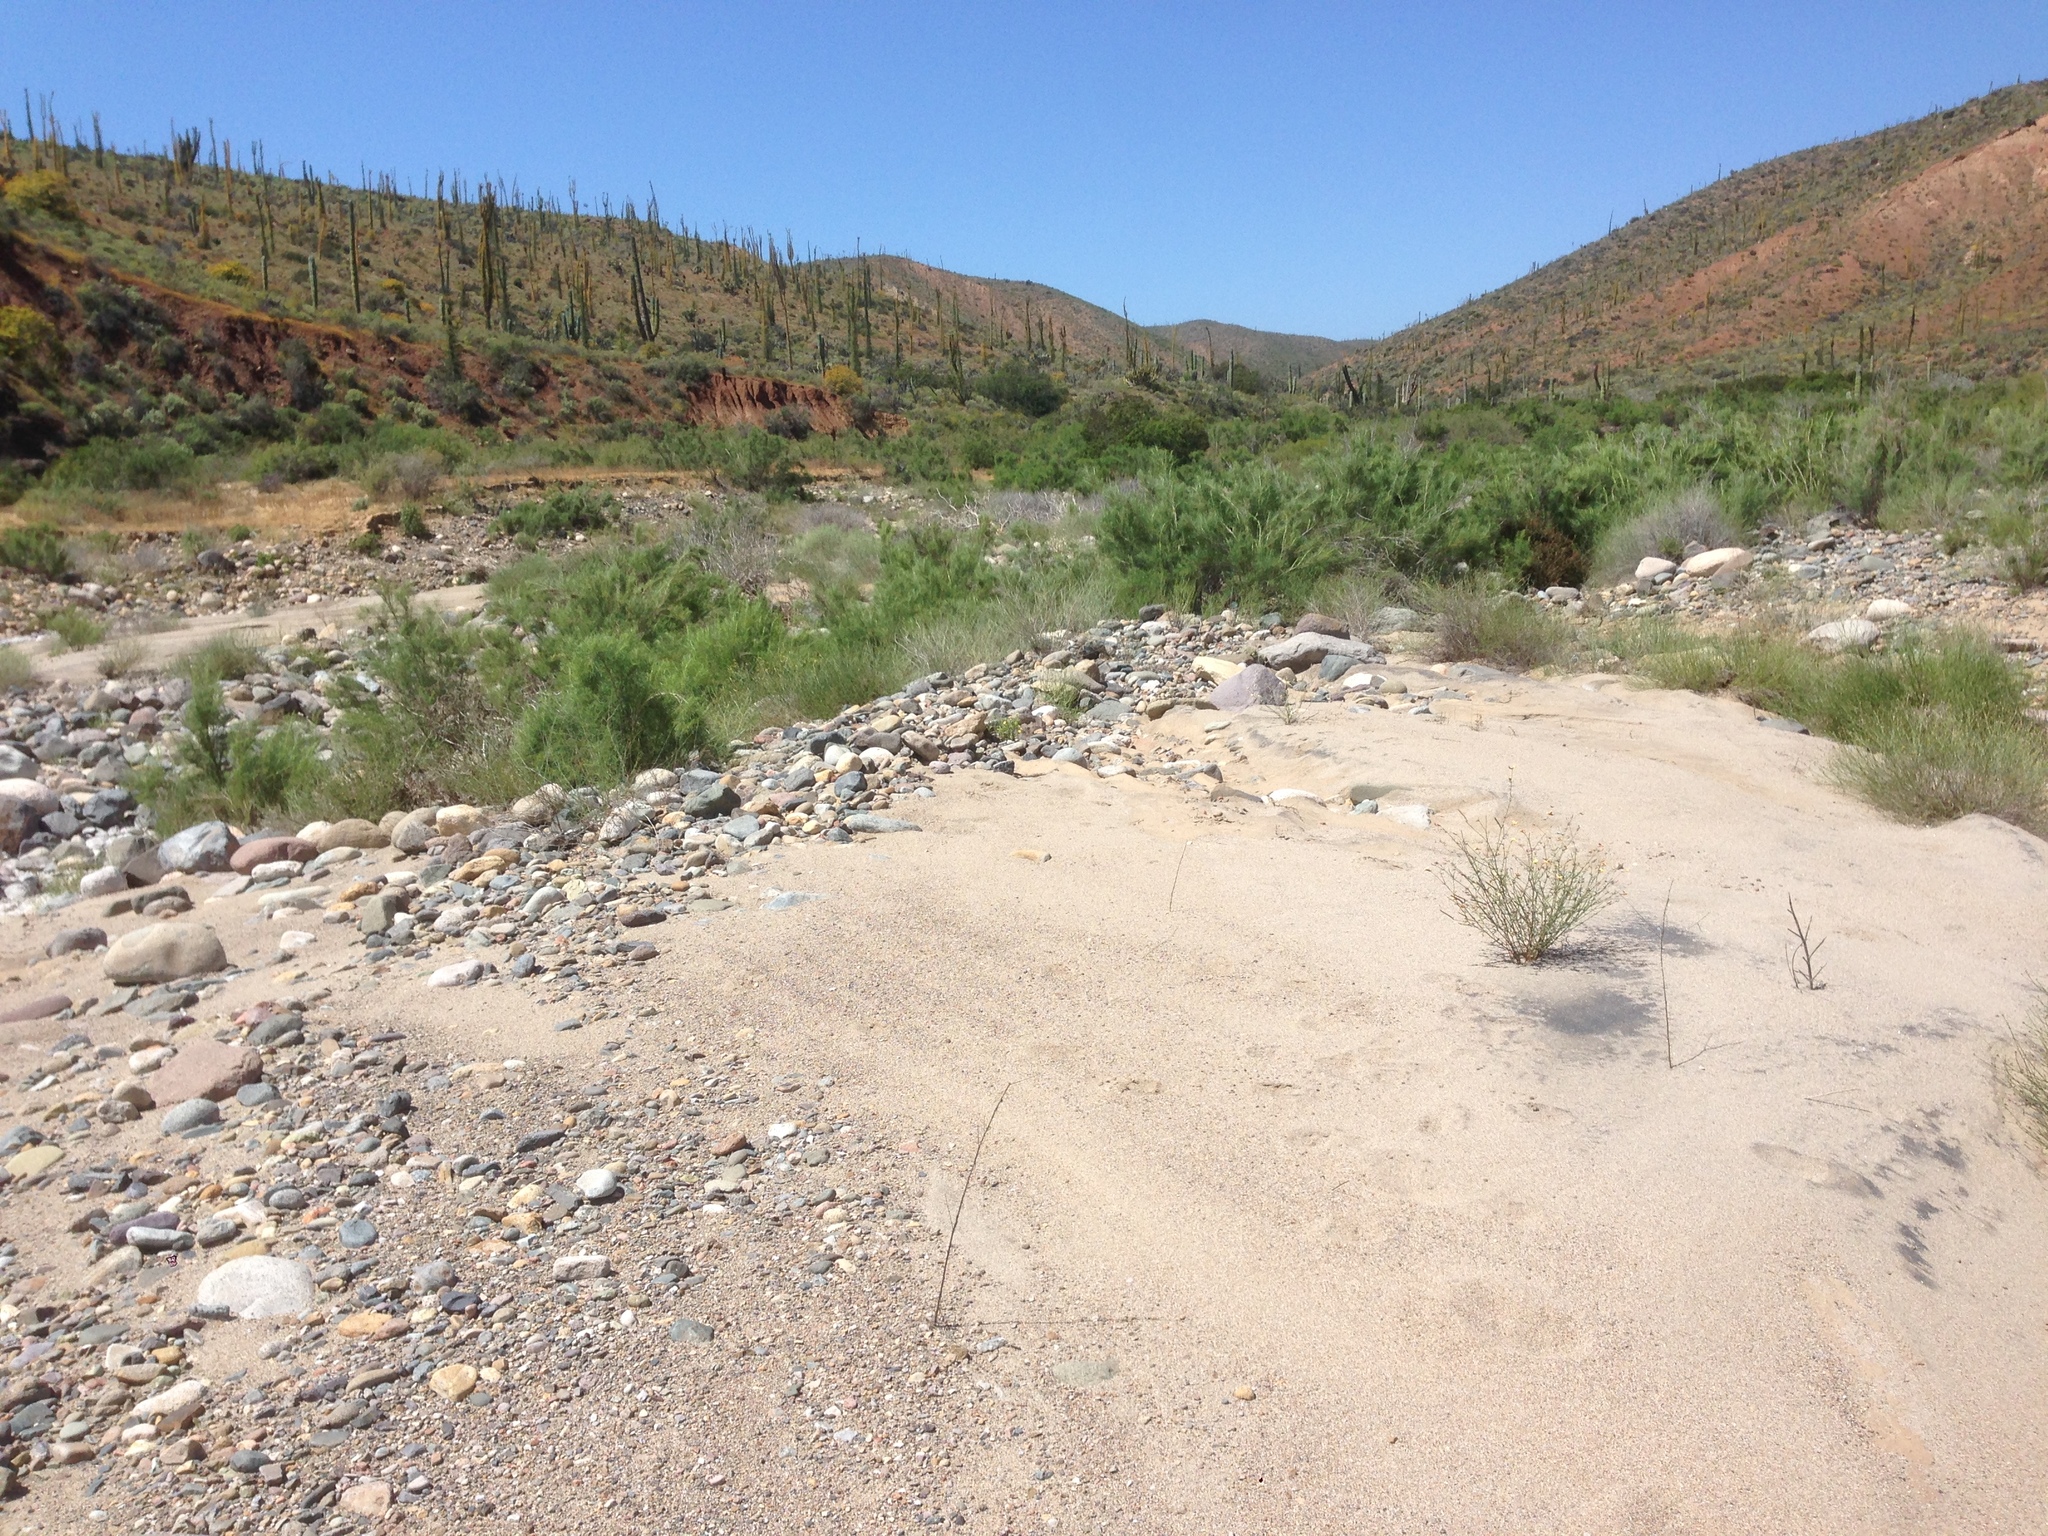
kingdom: Plantae
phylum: Tracheophyta
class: Magnoliopsida
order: Ericales
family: Fouquieriaceae
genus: Fouquieria
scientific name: Fouquieria columnaris
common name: Boojumtree
